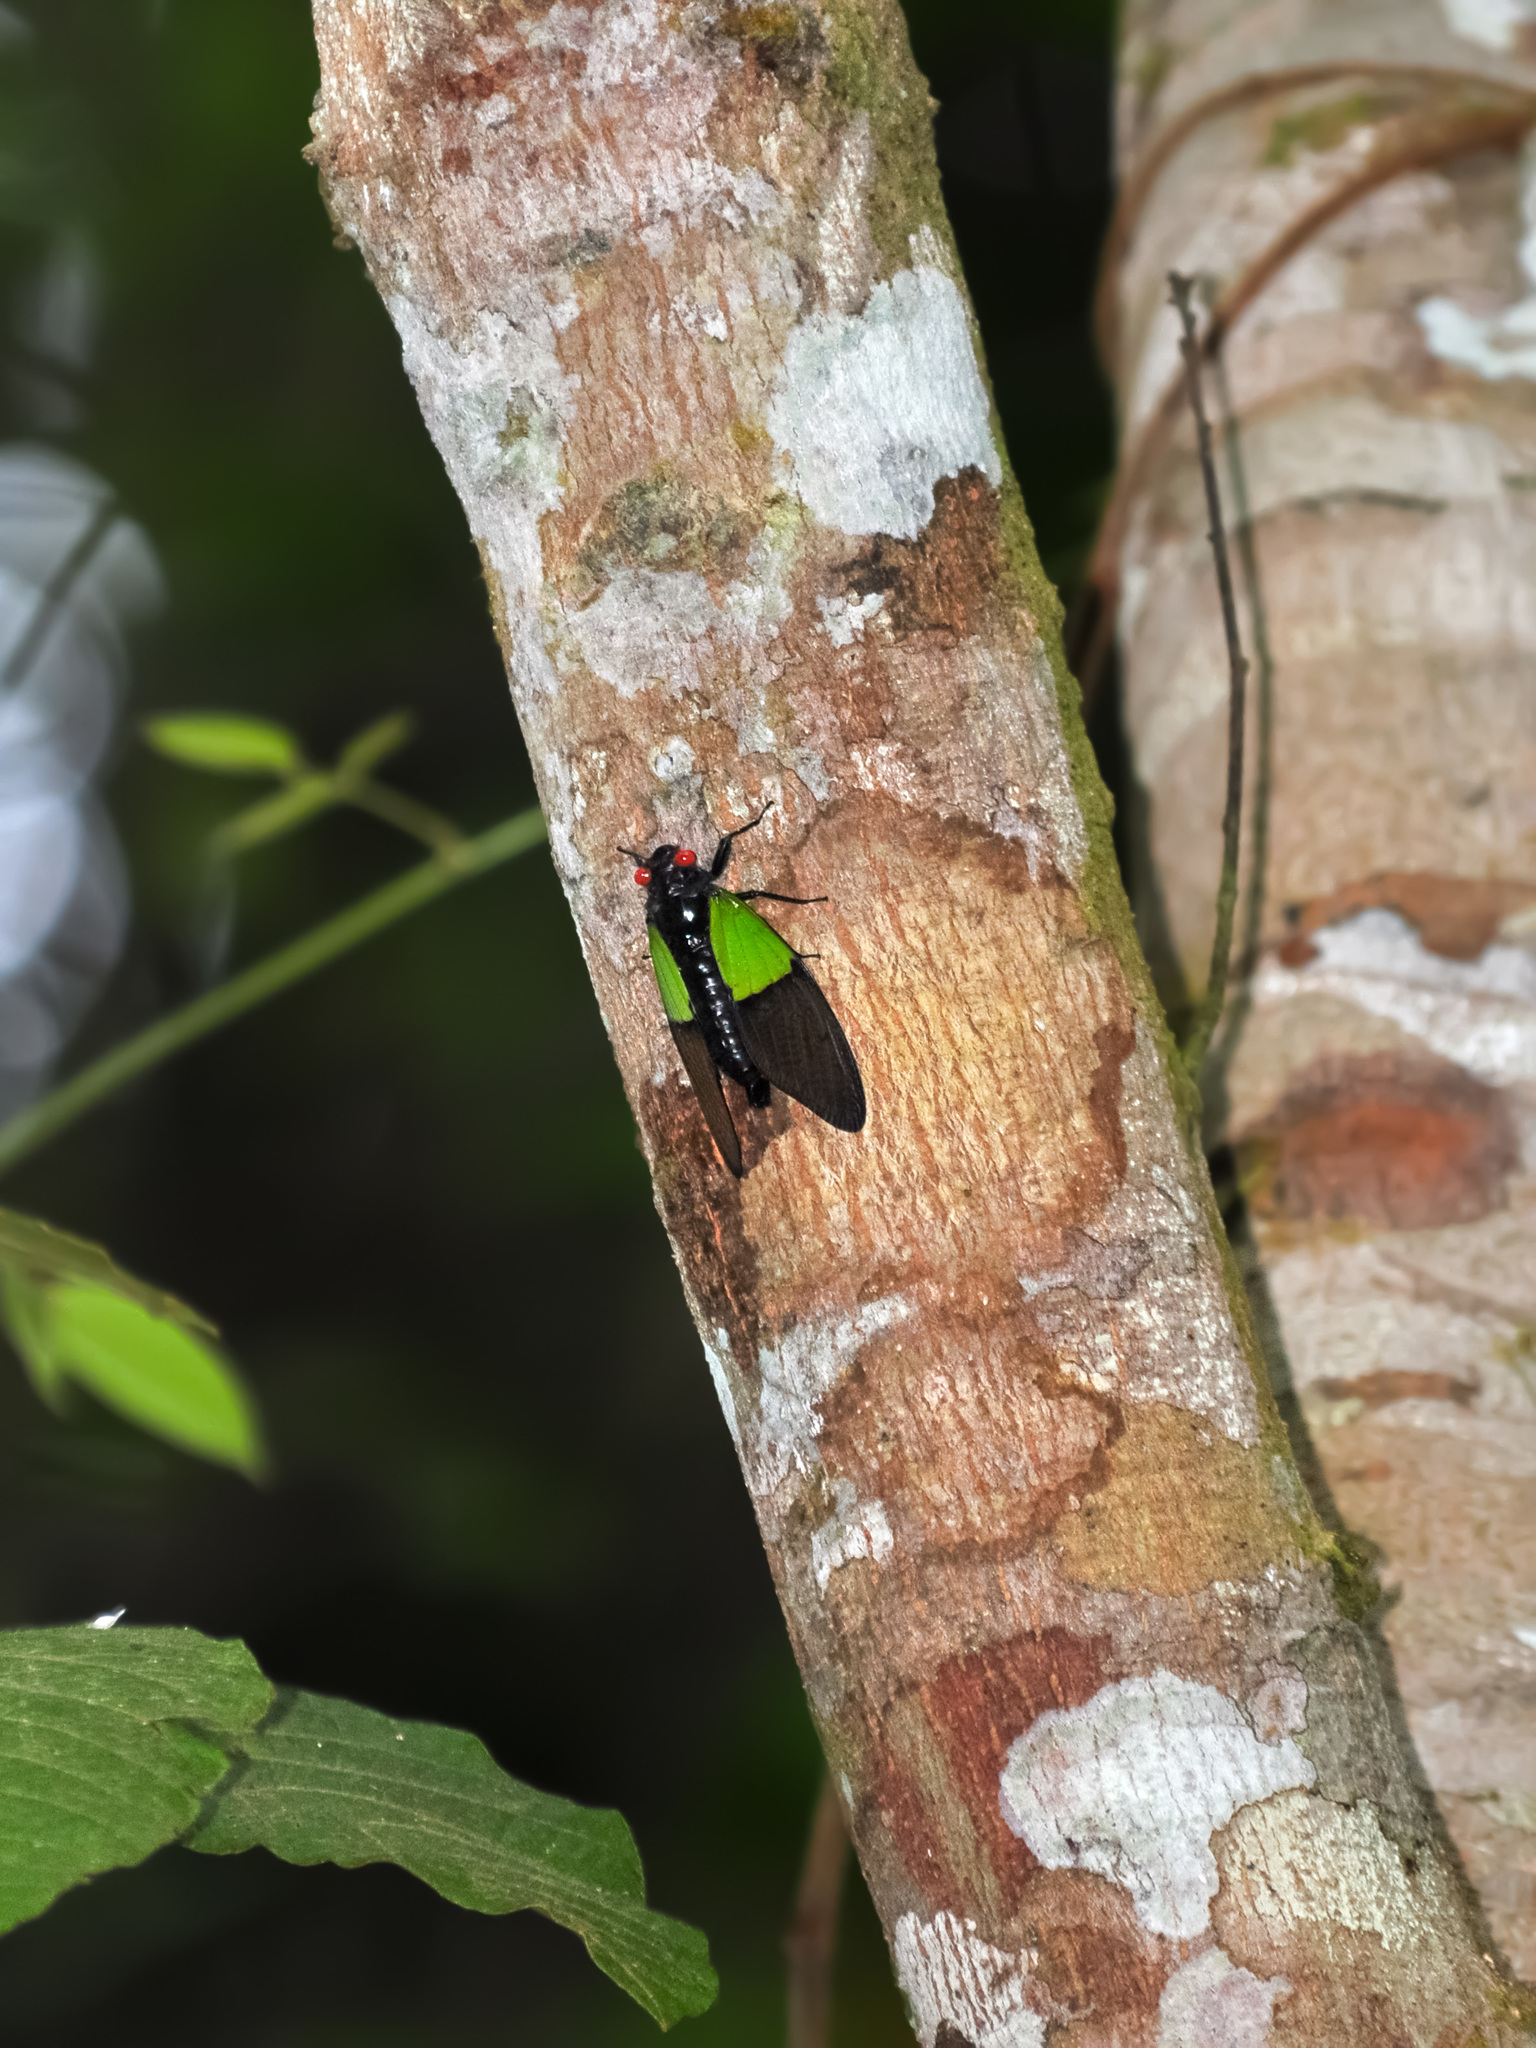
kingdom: Animalia
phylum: Arthropoda
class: Insecta
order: Hemiptera
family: Cicadidae
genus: Trengganua
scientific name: Trengganua sibylla
